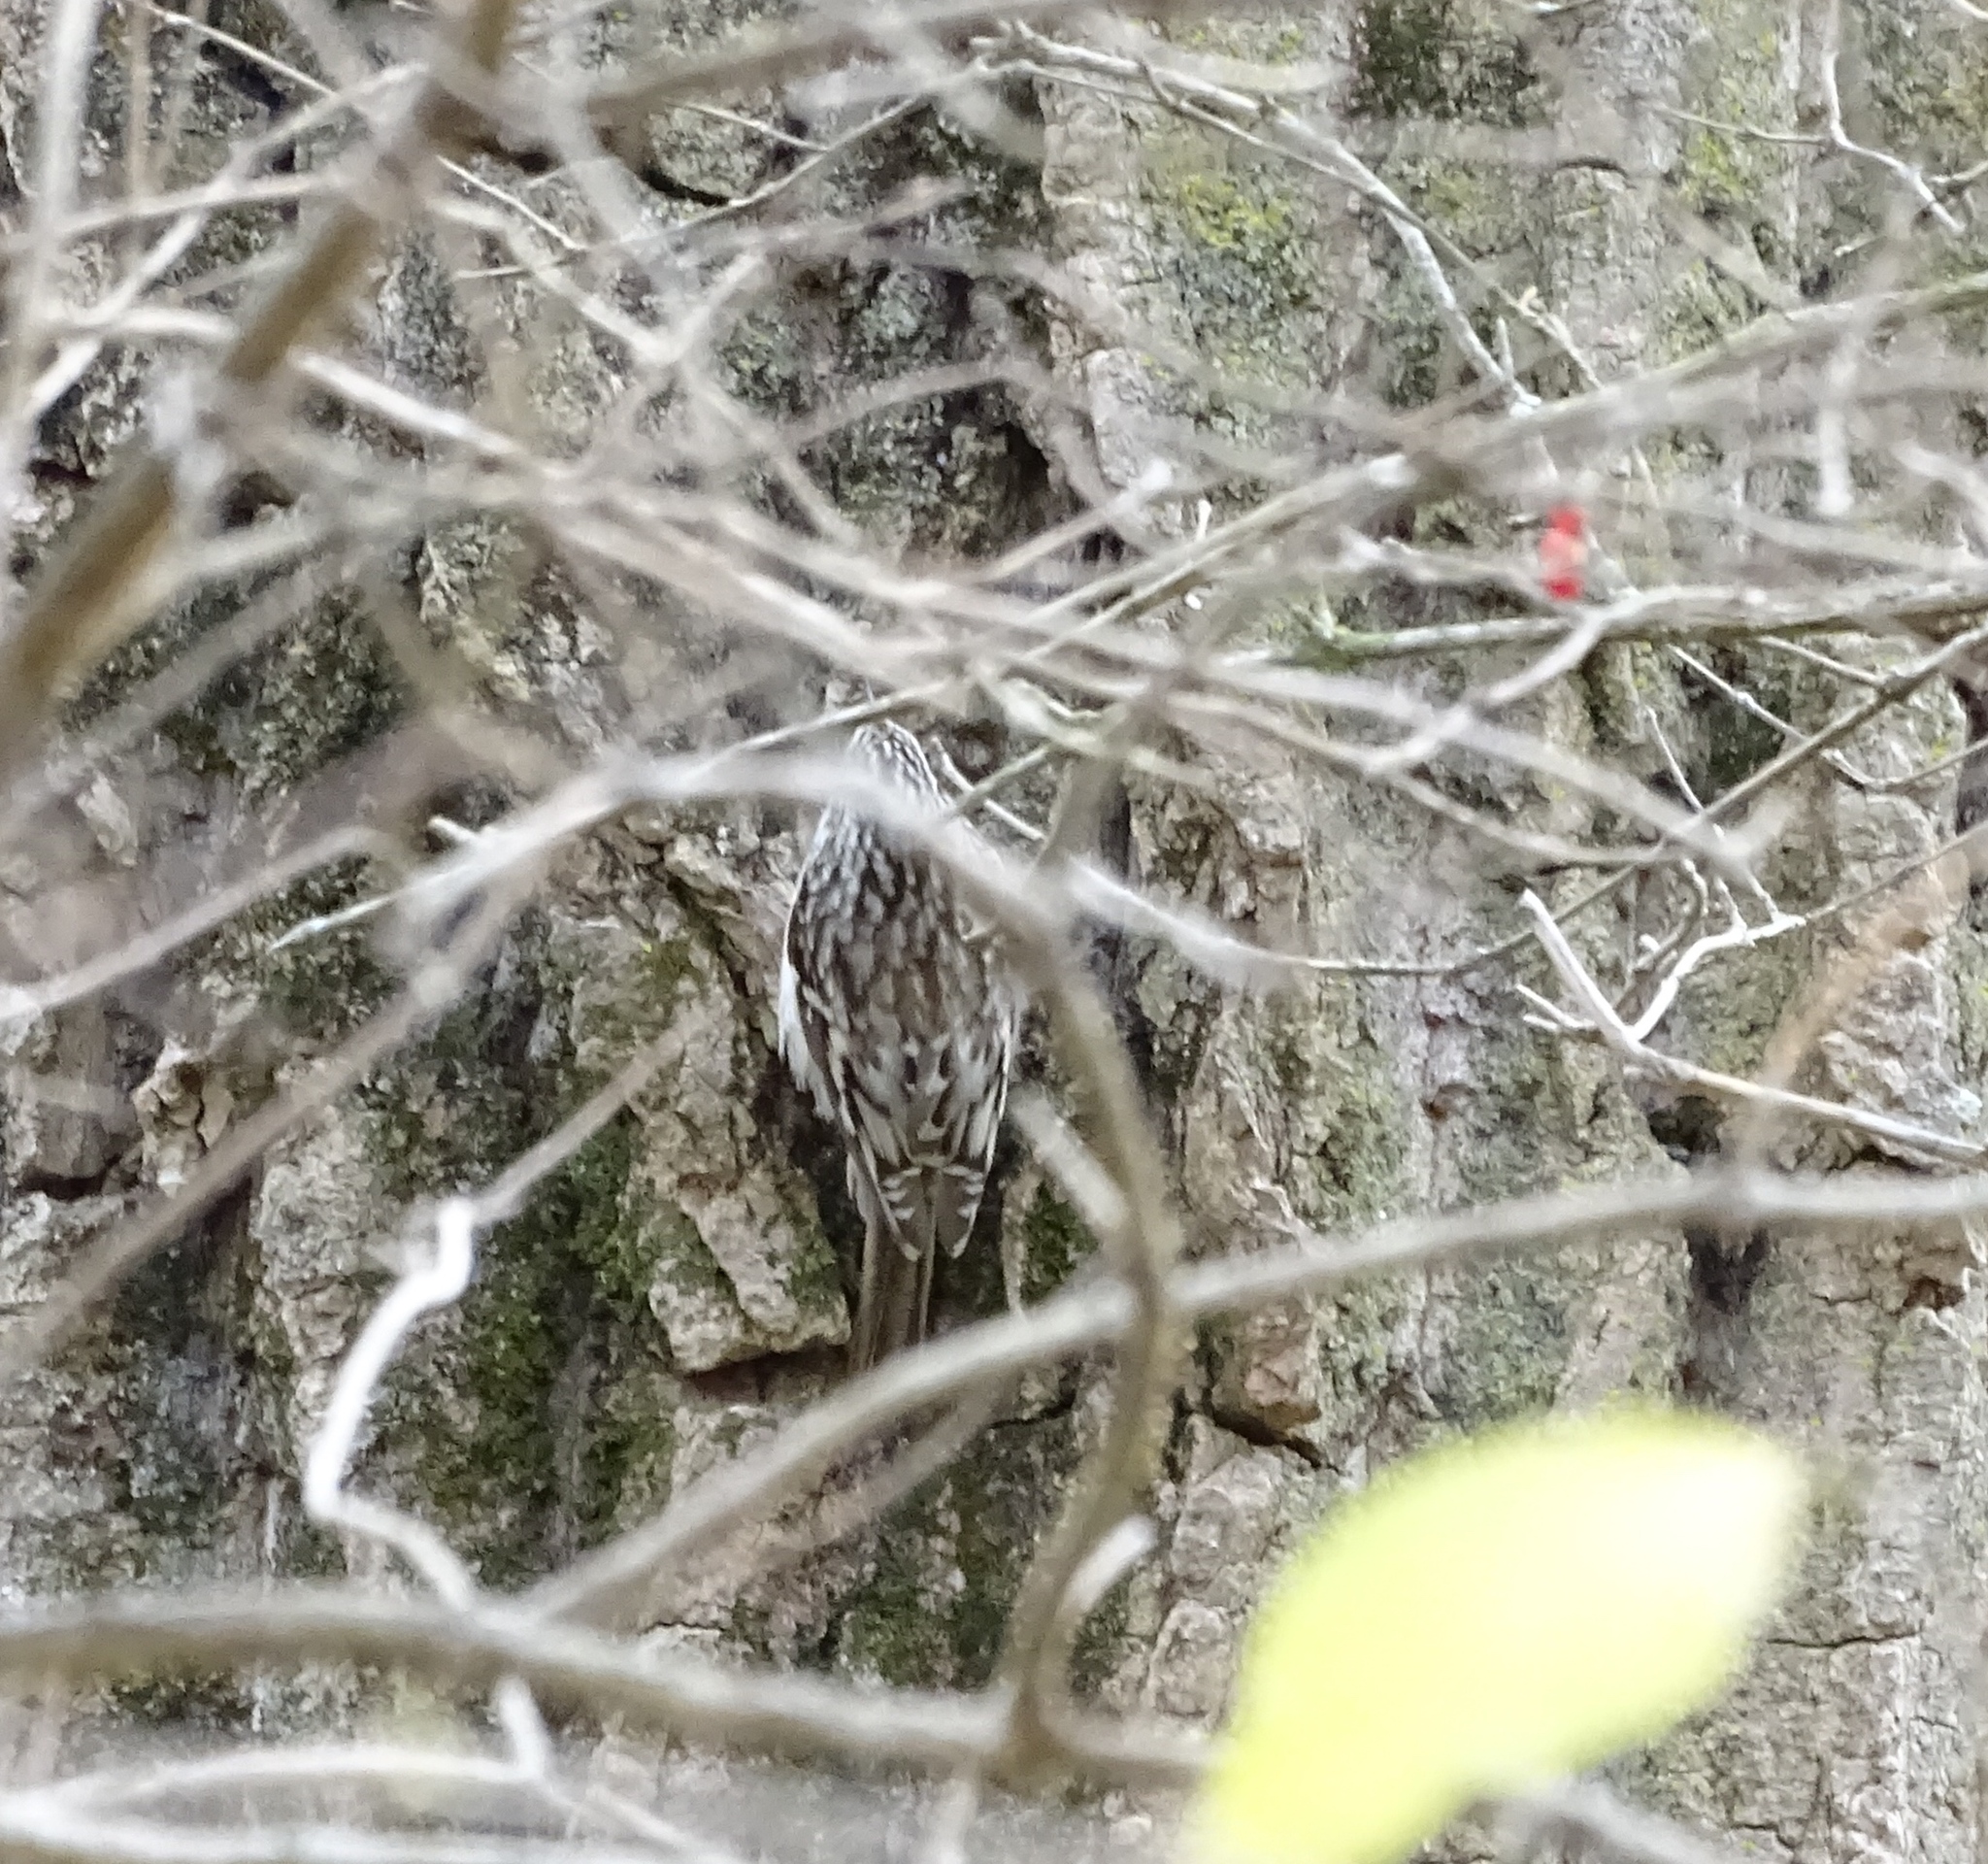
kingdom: Animalia
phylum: Chordata
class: Aves
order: Passeriformes
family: Certhiidae
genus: Certhia
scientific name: Certhia americana
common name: Brown creeper
